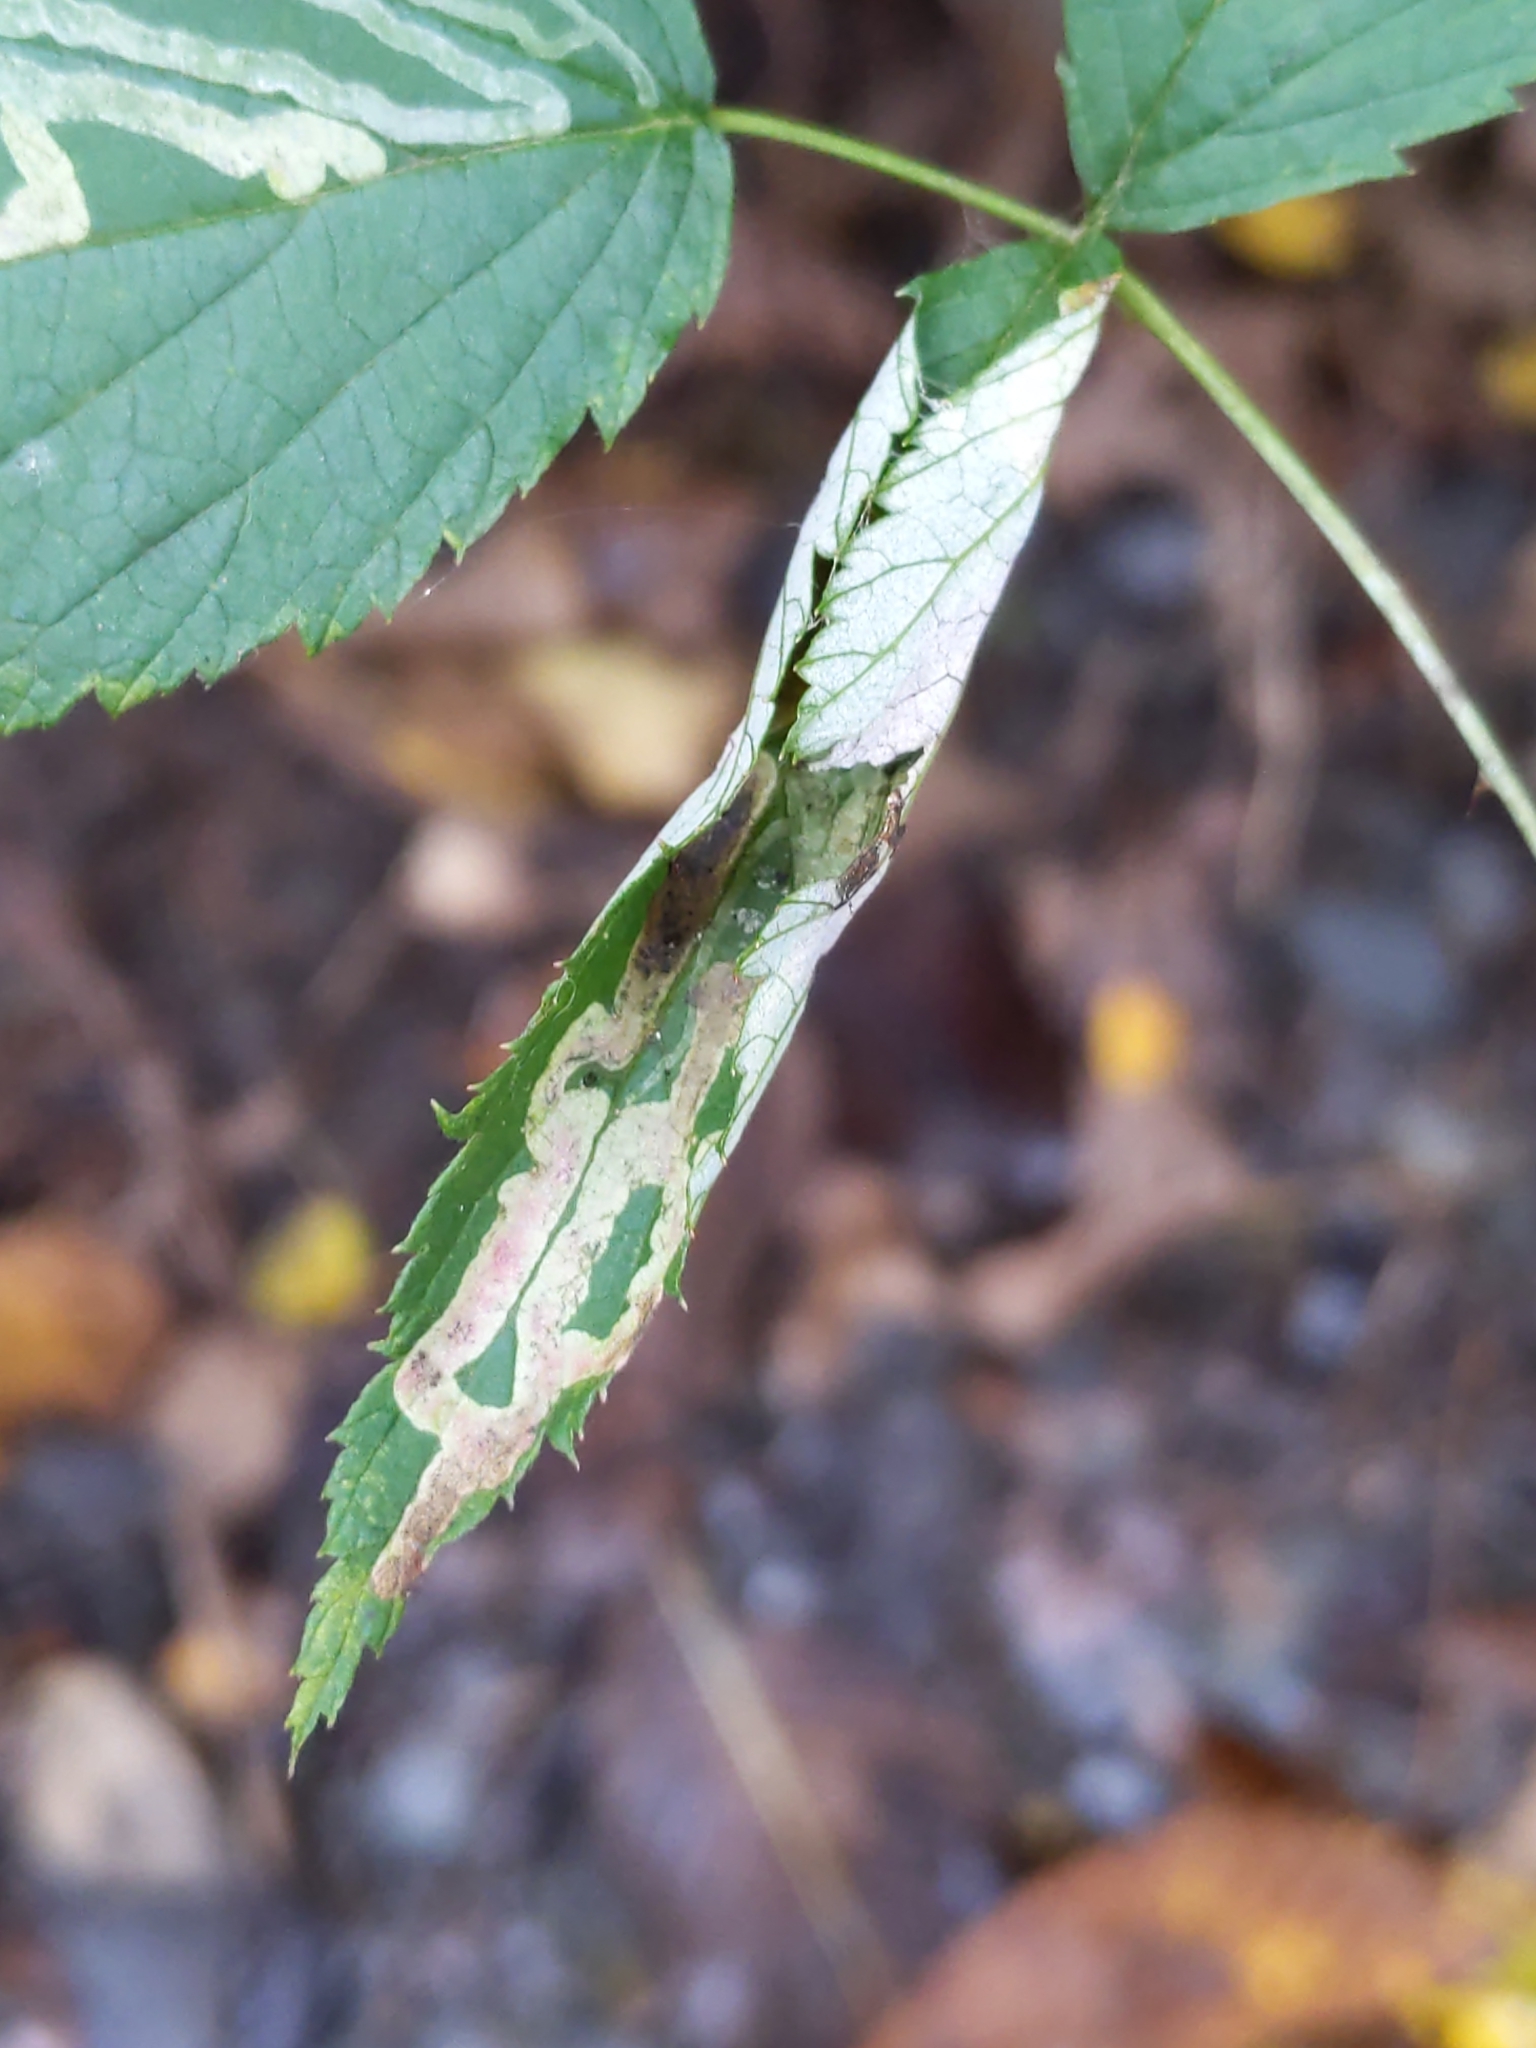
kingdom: Animalia
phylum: Arthropoda
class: Insecta
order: Diptera
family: Agromyzidae
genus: Agromyza
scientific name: Agromyza vockerothi
